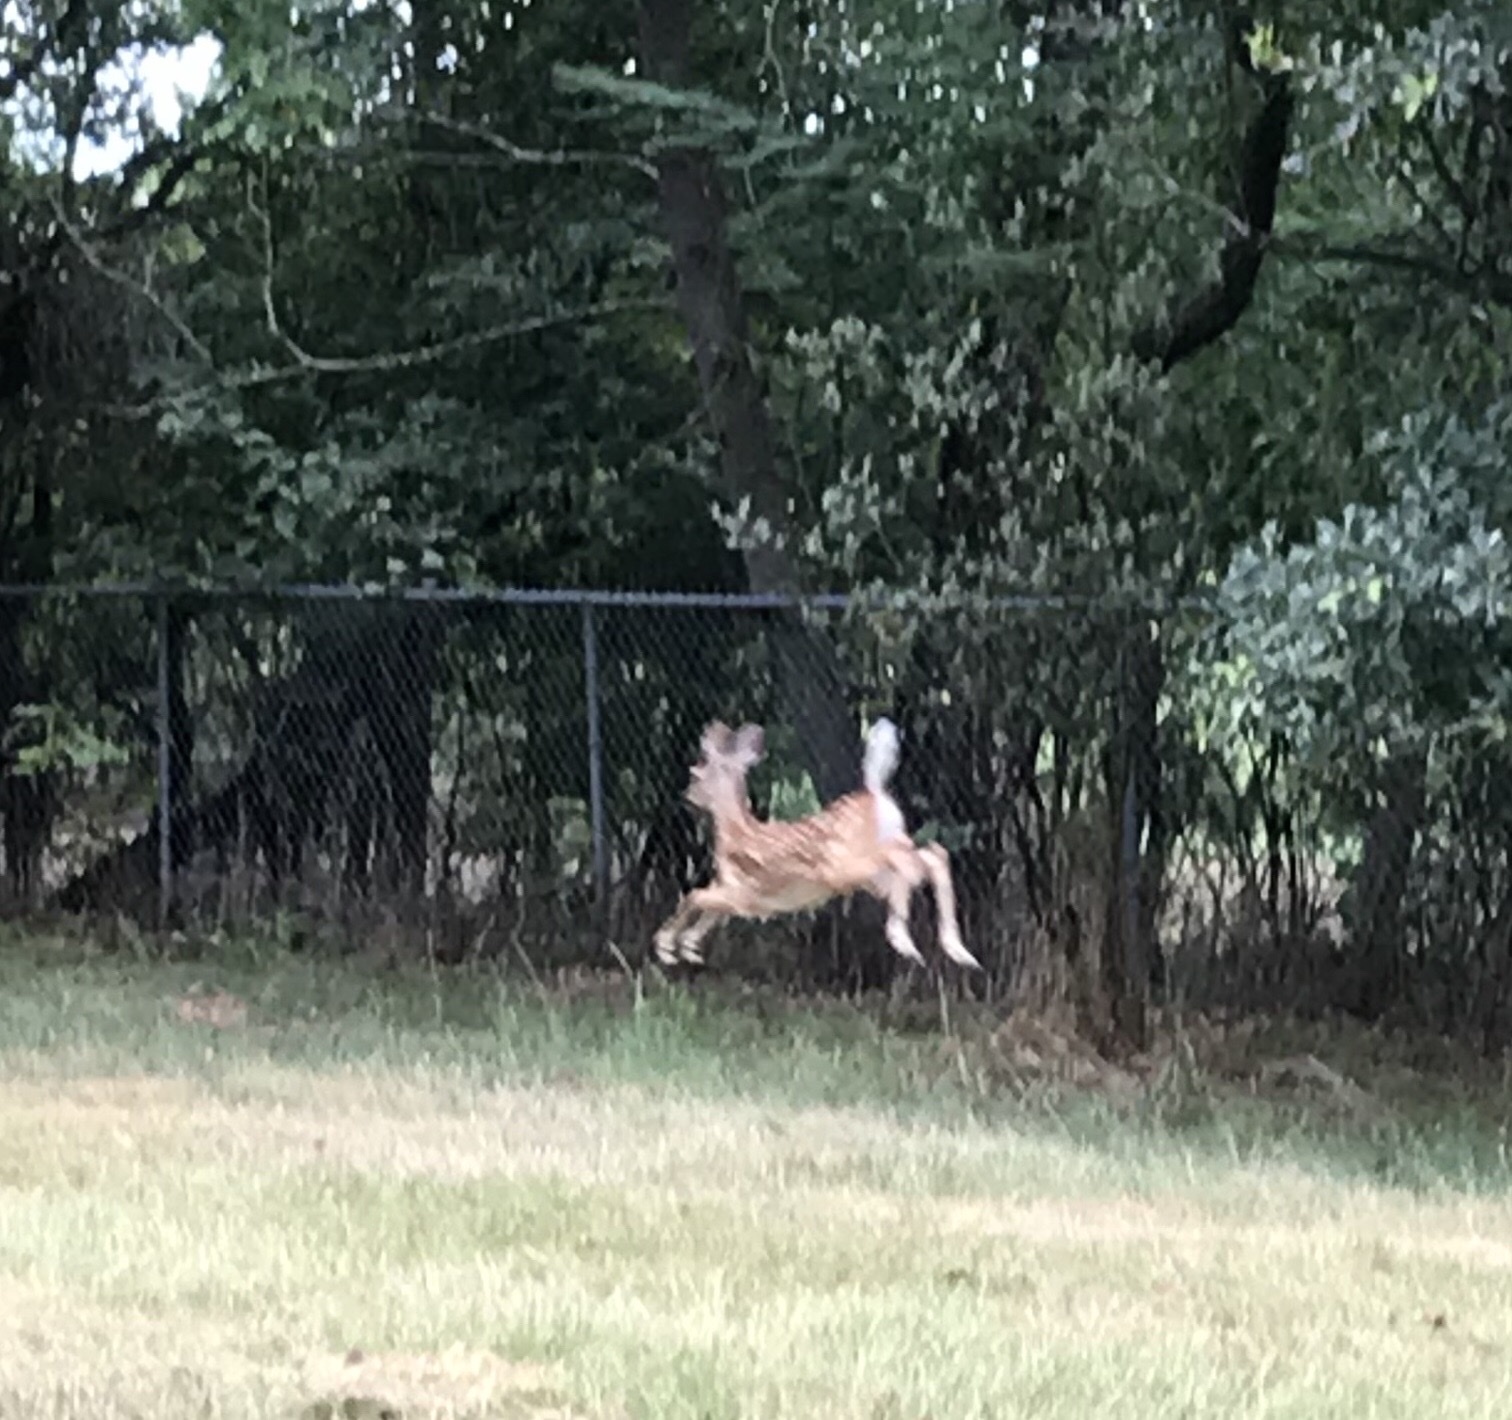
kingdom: Animalia
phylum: Chordata
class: Mammalia
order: Artiodactyla
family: Cervidae
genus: Odocoileus
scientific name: Odocoileus virginianus
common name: White-tailed deer
